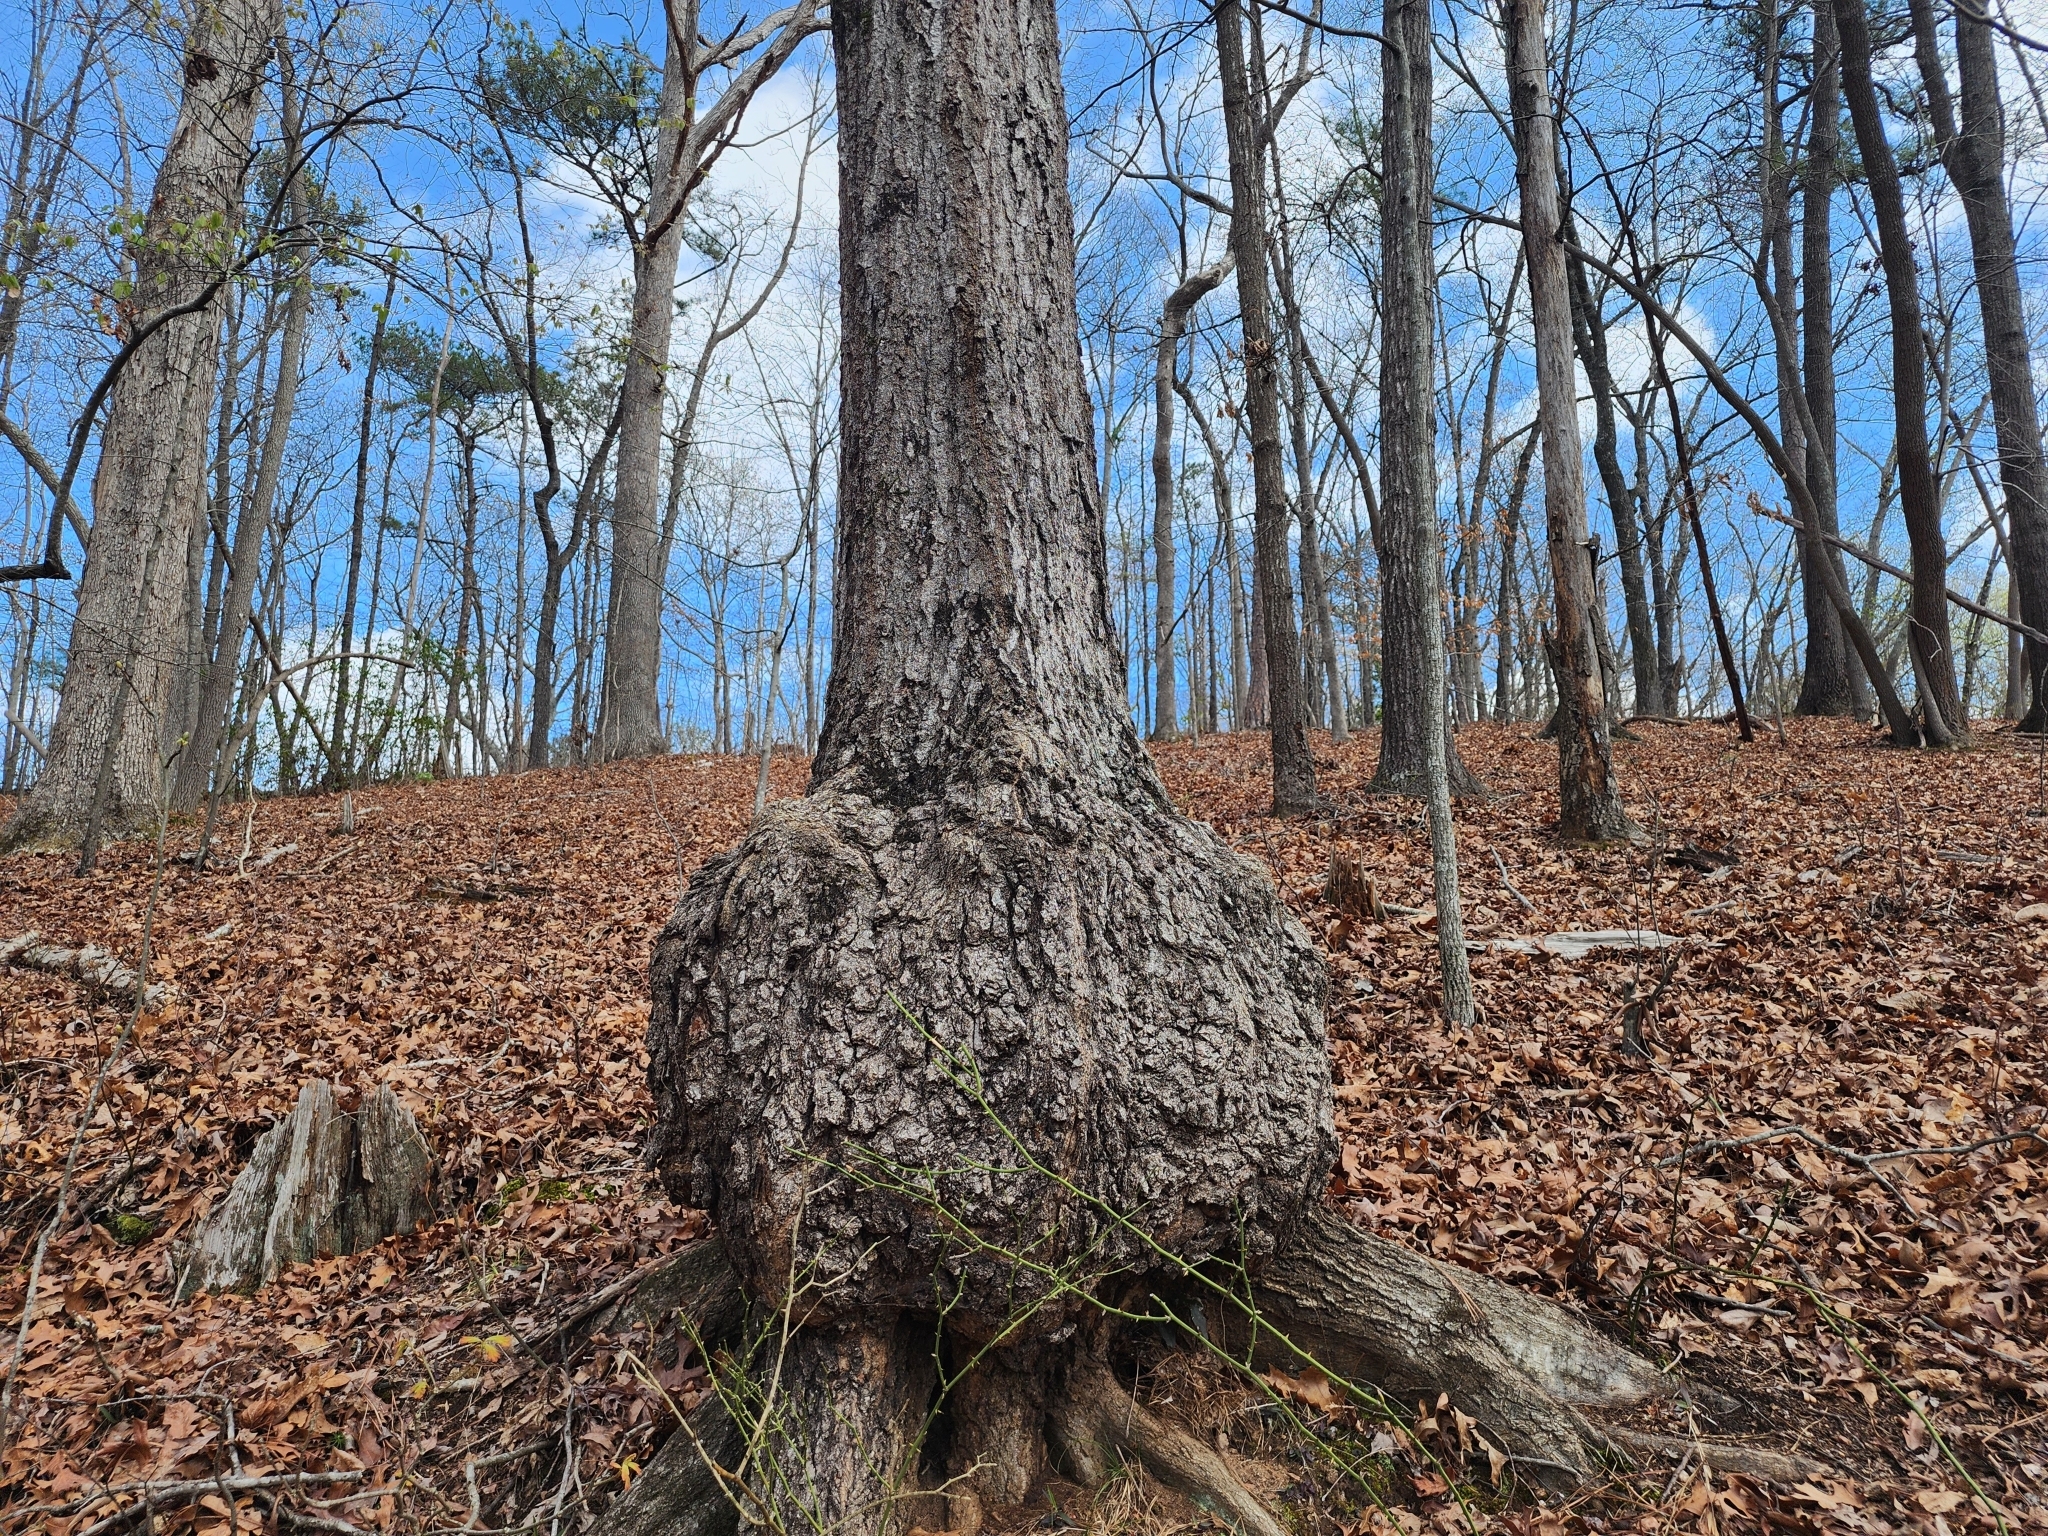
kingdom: Bacteria
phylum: Proteobacteria
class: Alphaproteobacteria
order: Rhizobiales
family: Rhizobiaceae
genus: Rhizobium
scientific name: Rhizobium Agrobacterium radiobacter
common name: Bacterial crown gall
